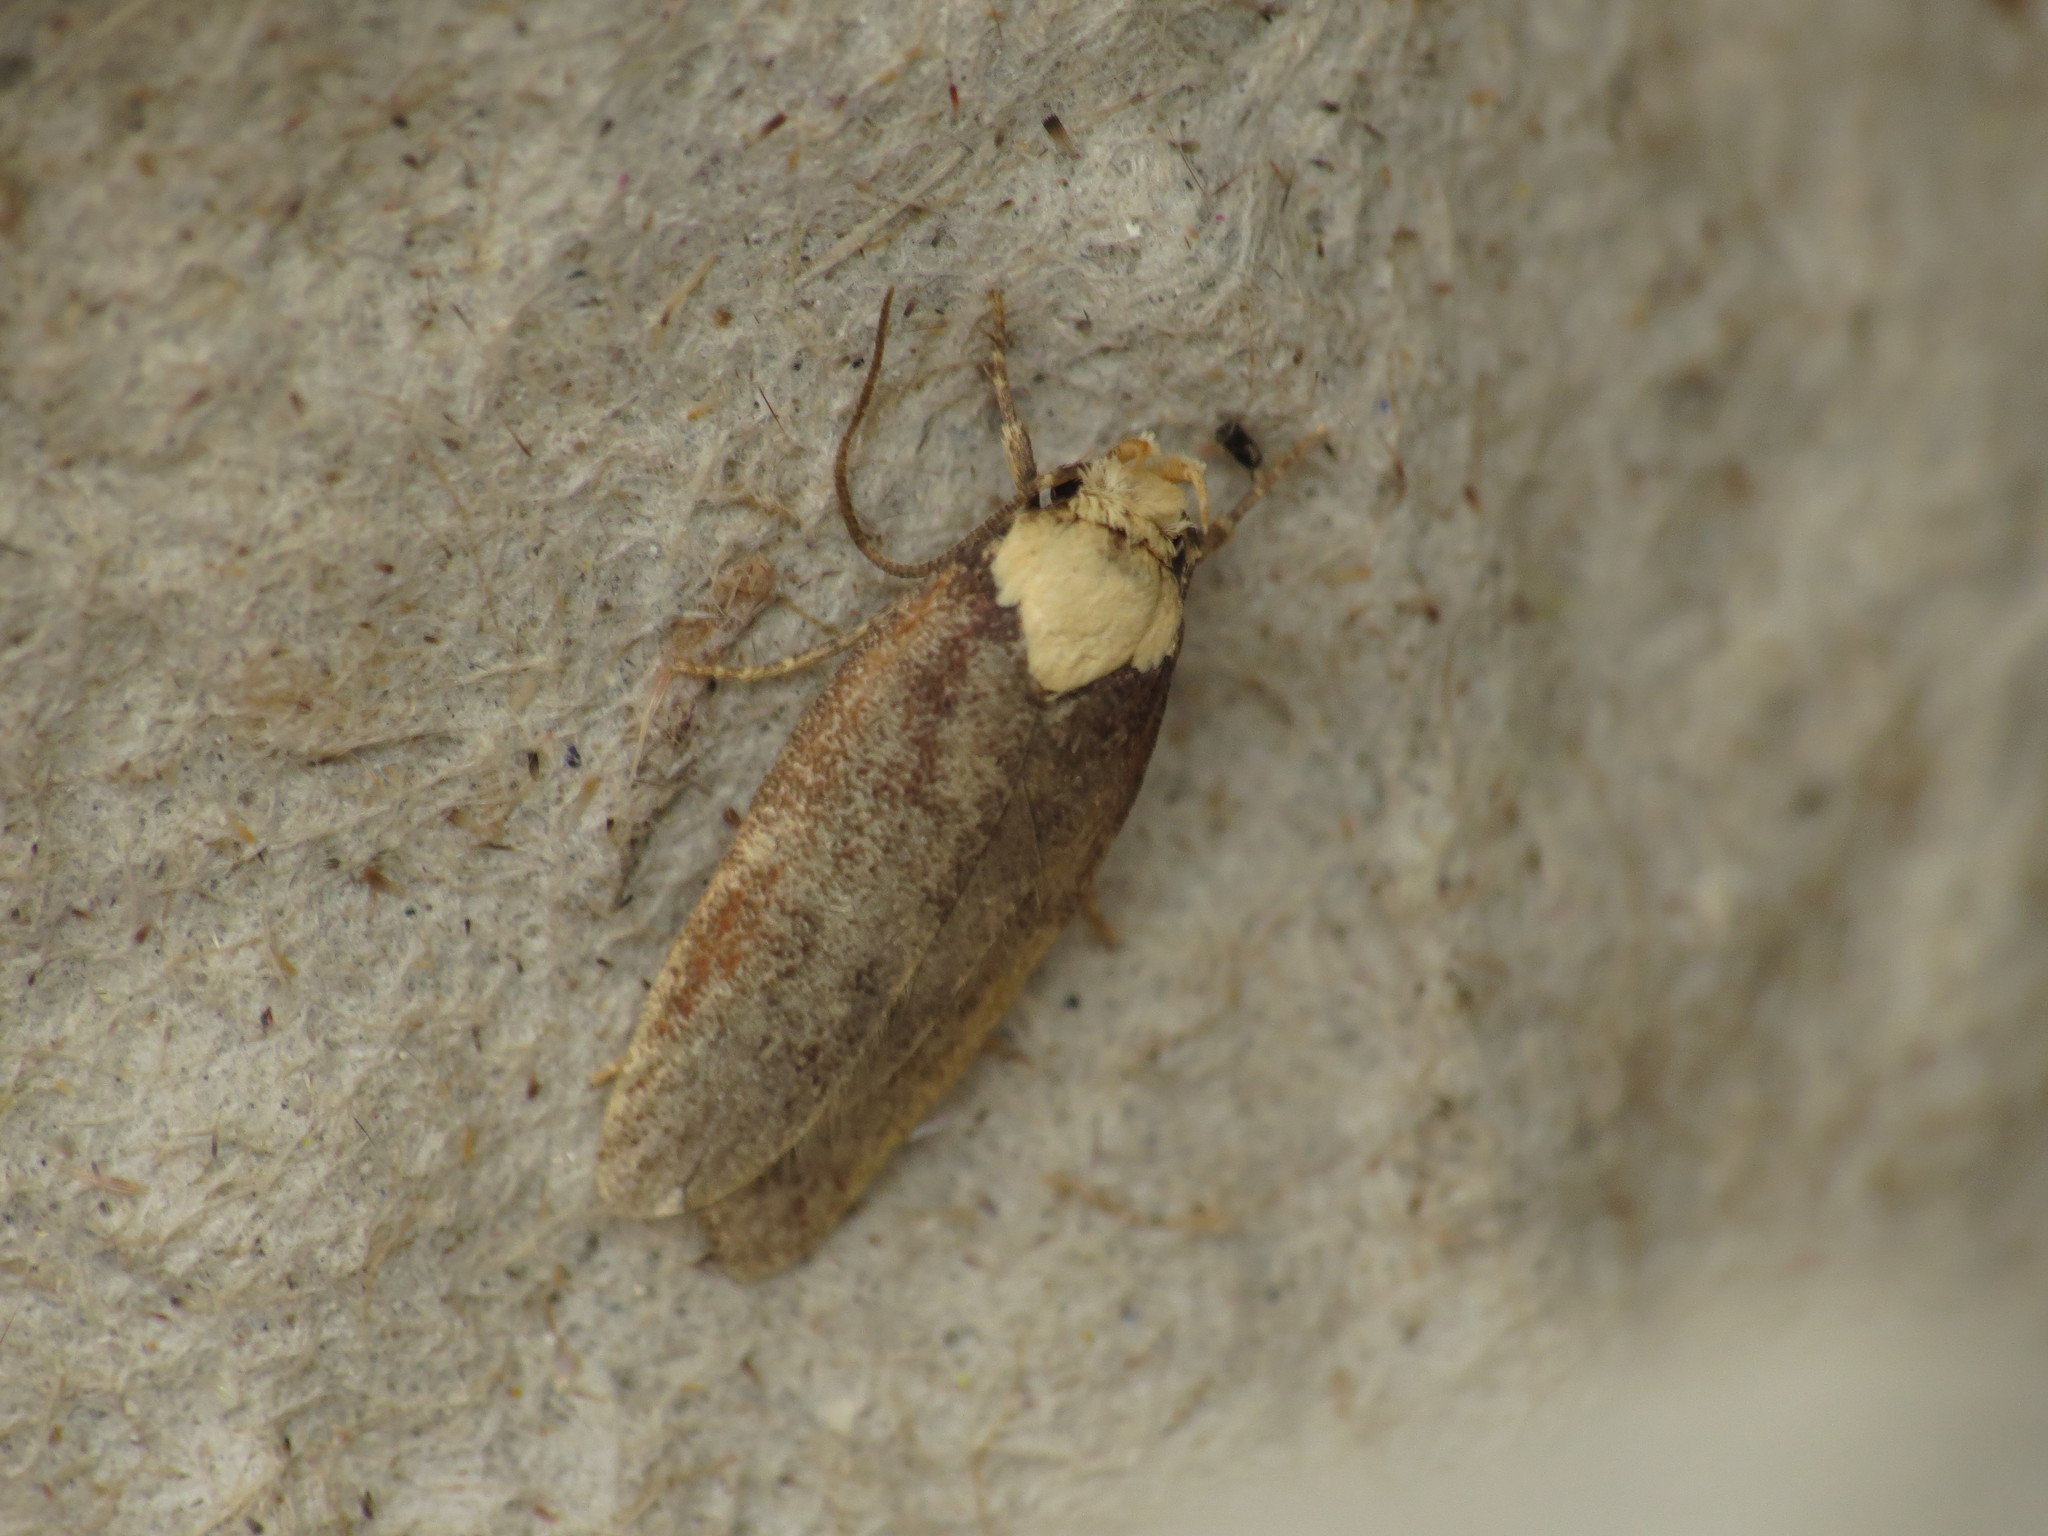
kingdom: Animalia
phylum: Arthropoda
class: Insecta
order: Lepidoptera
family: Depressariidae
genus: Depressaria
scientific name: Depressaria depressana
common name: Lost flat-body
